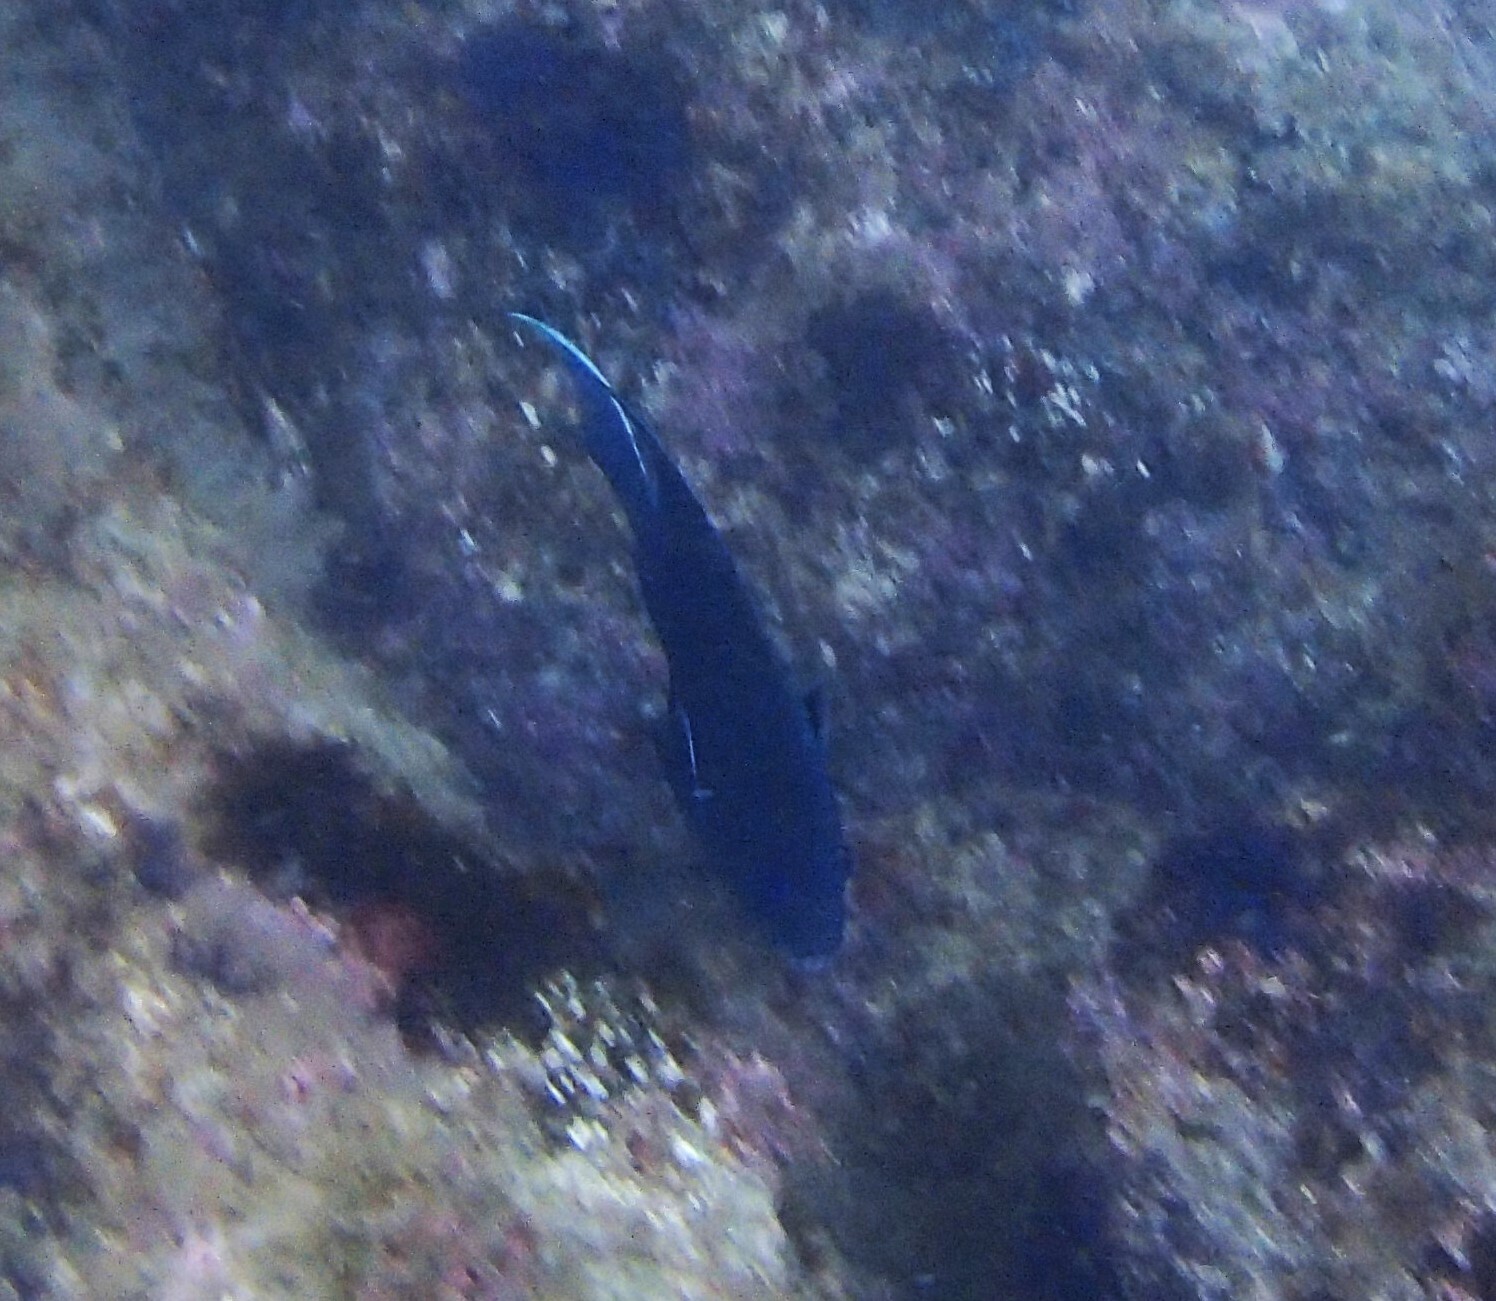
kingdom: Animalia
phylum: Chordata
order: Perciformes
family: Pomacentridae
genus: Microspathodon
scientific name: Microspathodon dorsalis
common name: Giant damselfish
